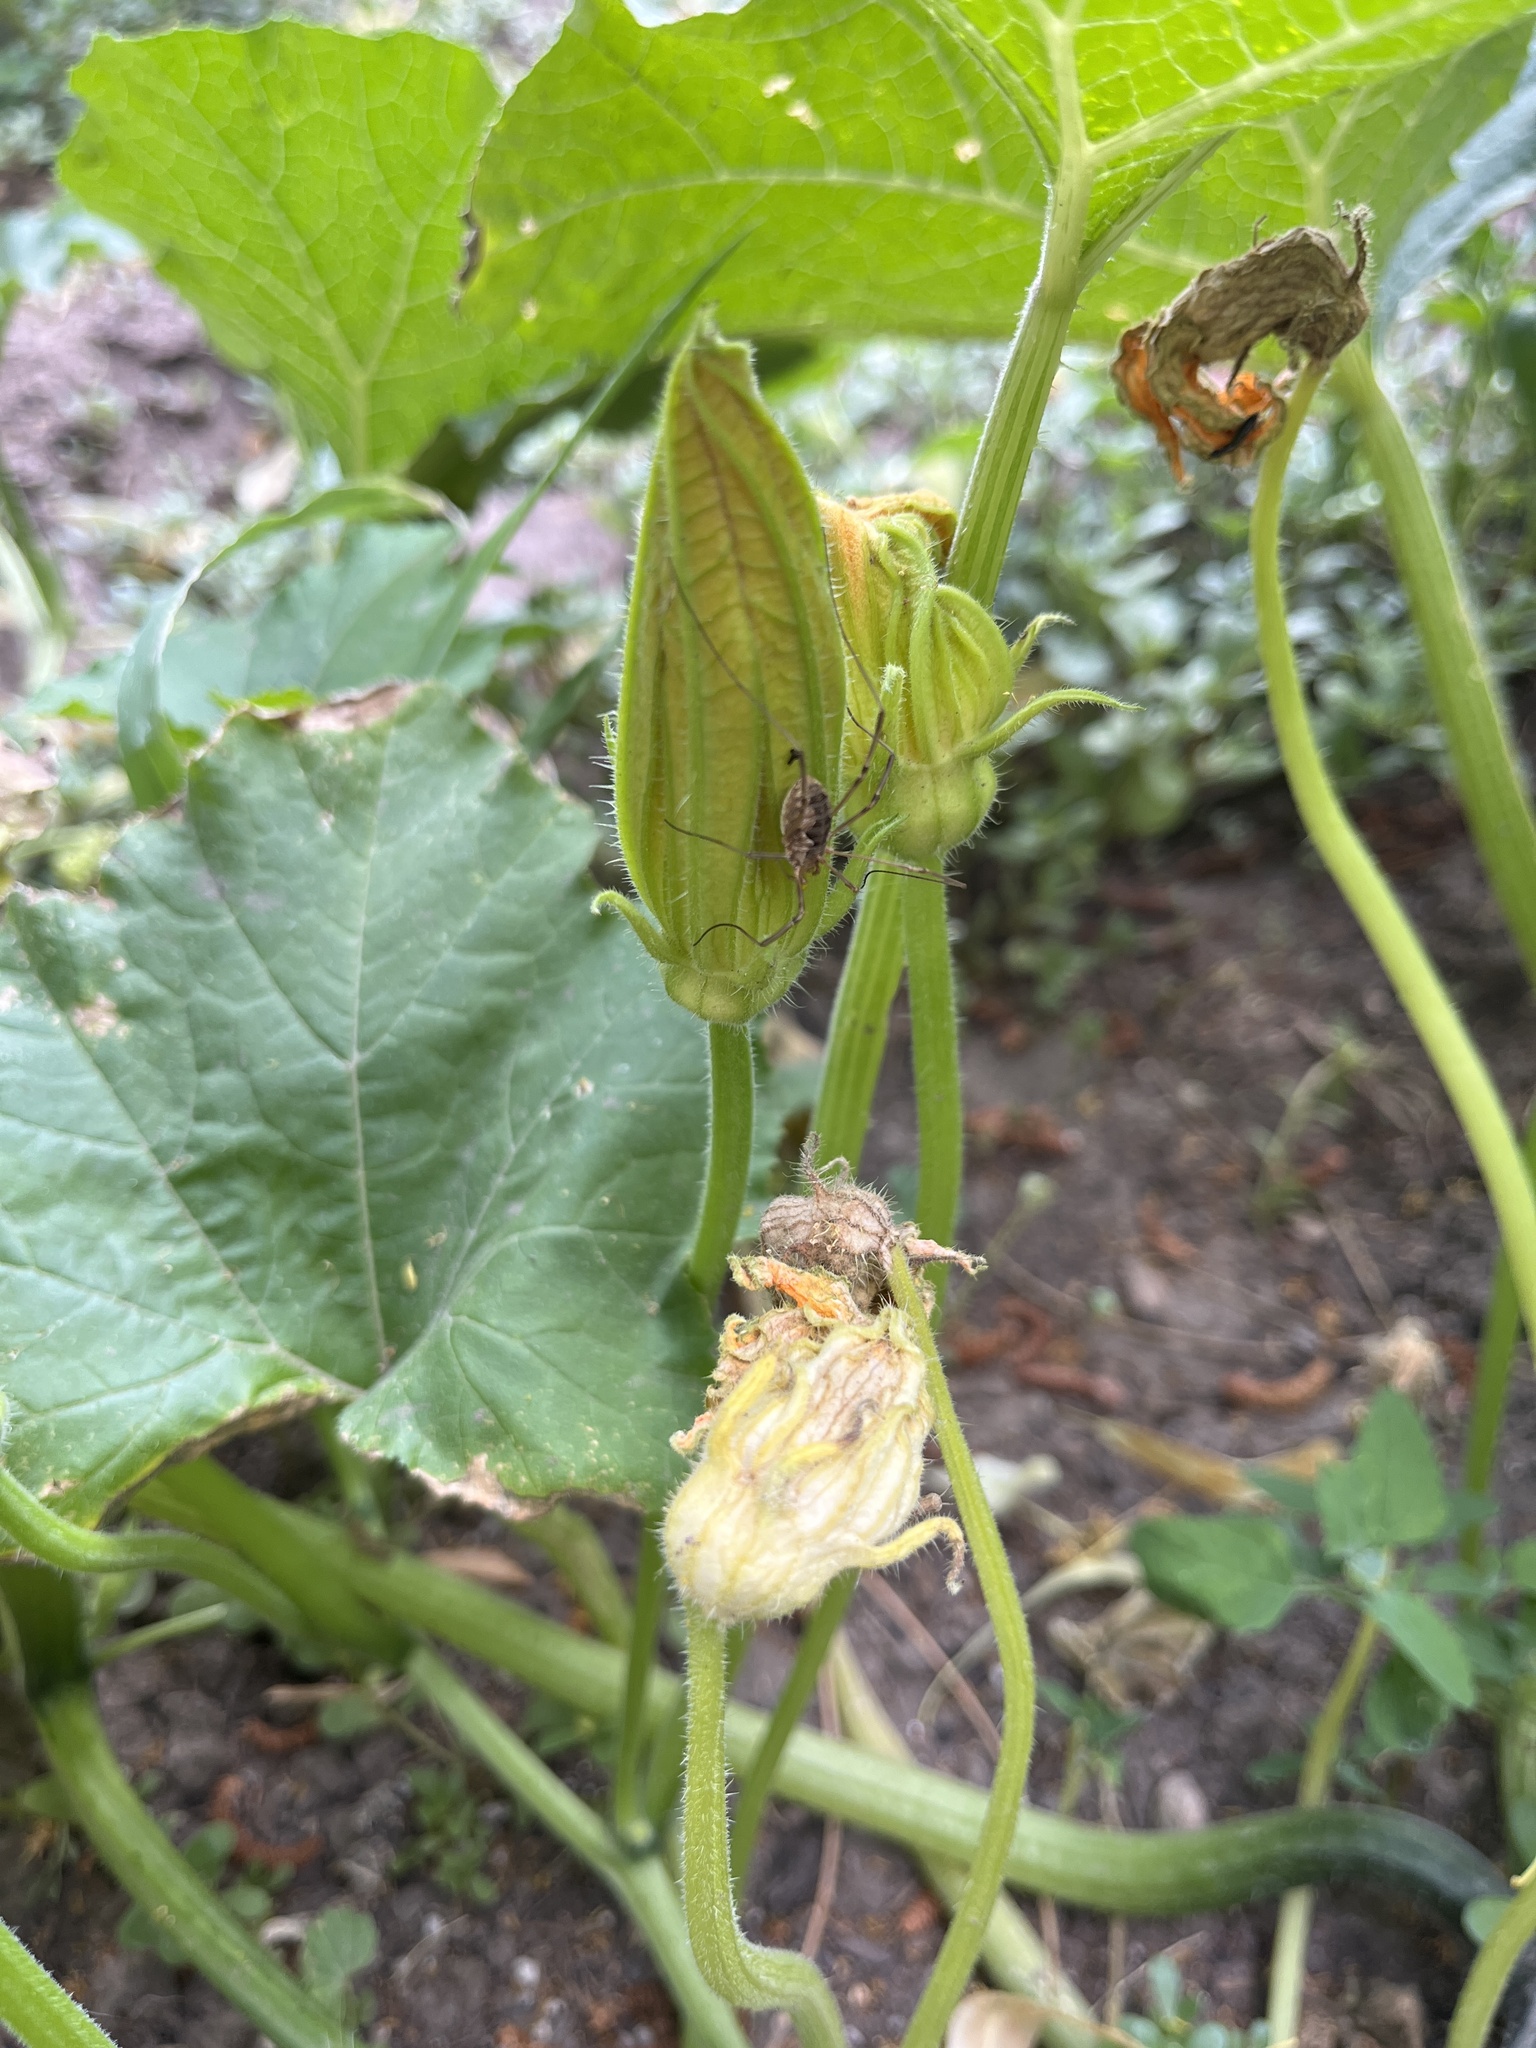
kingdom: Animalia
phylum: Arthropoda
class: Arachnida
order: Opiliones
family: Phalangiidae
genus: Phalangium
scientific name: Phalangium opilio
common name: Daddy longleg
